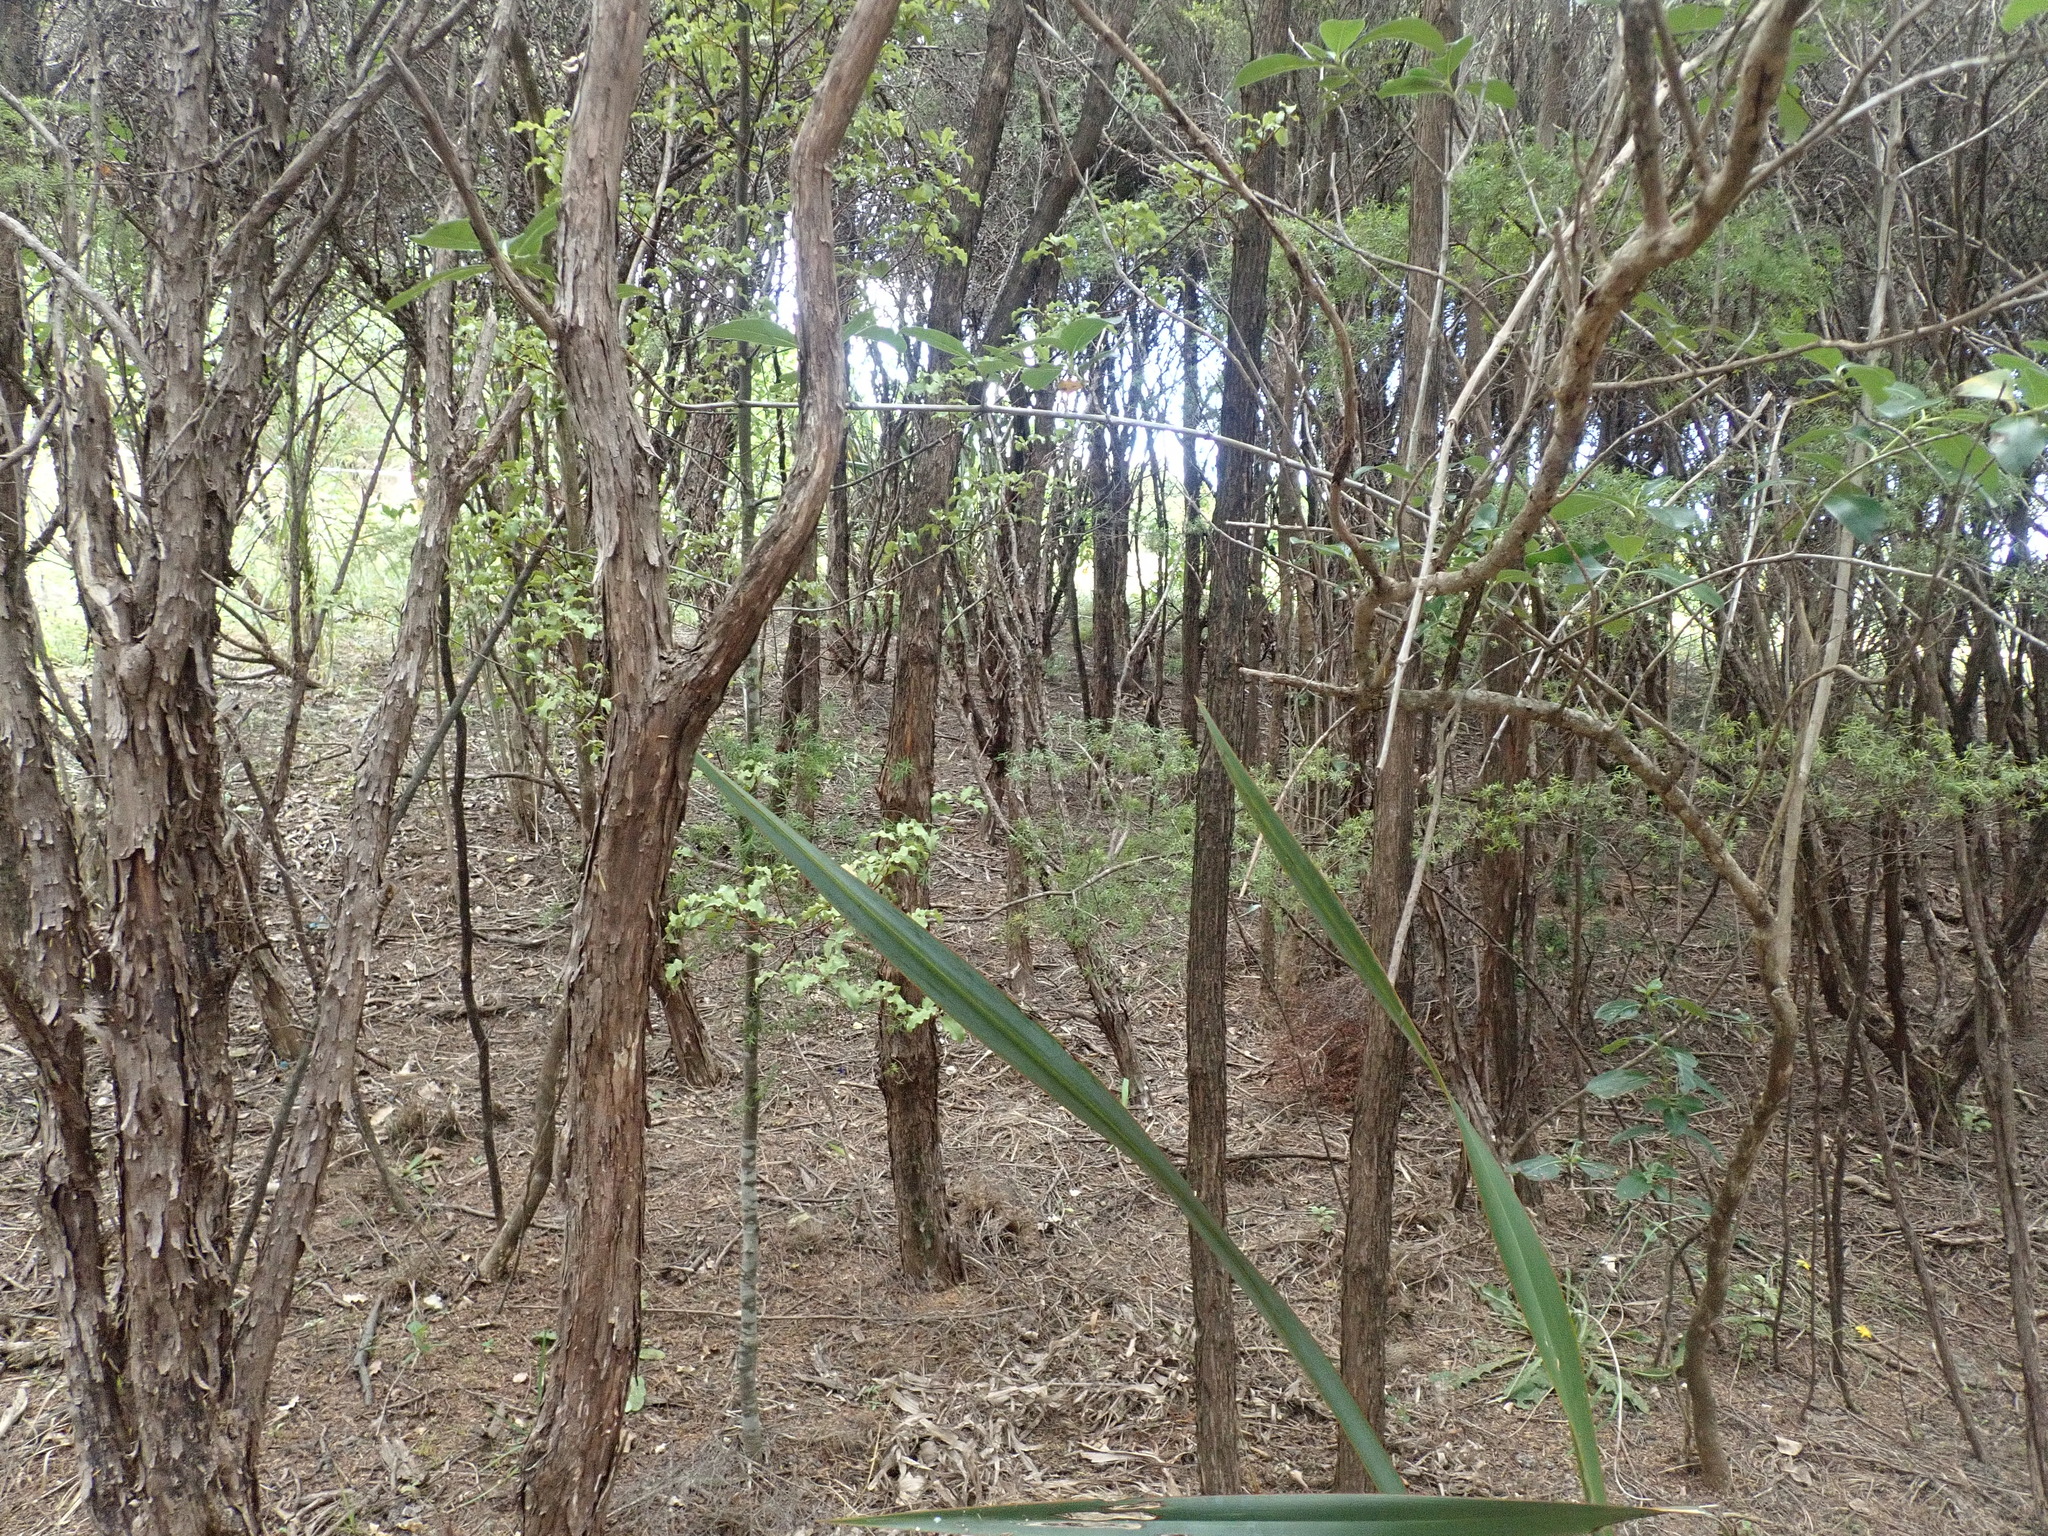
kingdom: Plantae
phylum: Tracheophyta
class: Magnoliopsida
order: Ericales
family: Primulaceae
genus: Myrsine
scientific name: Myrsine australis
